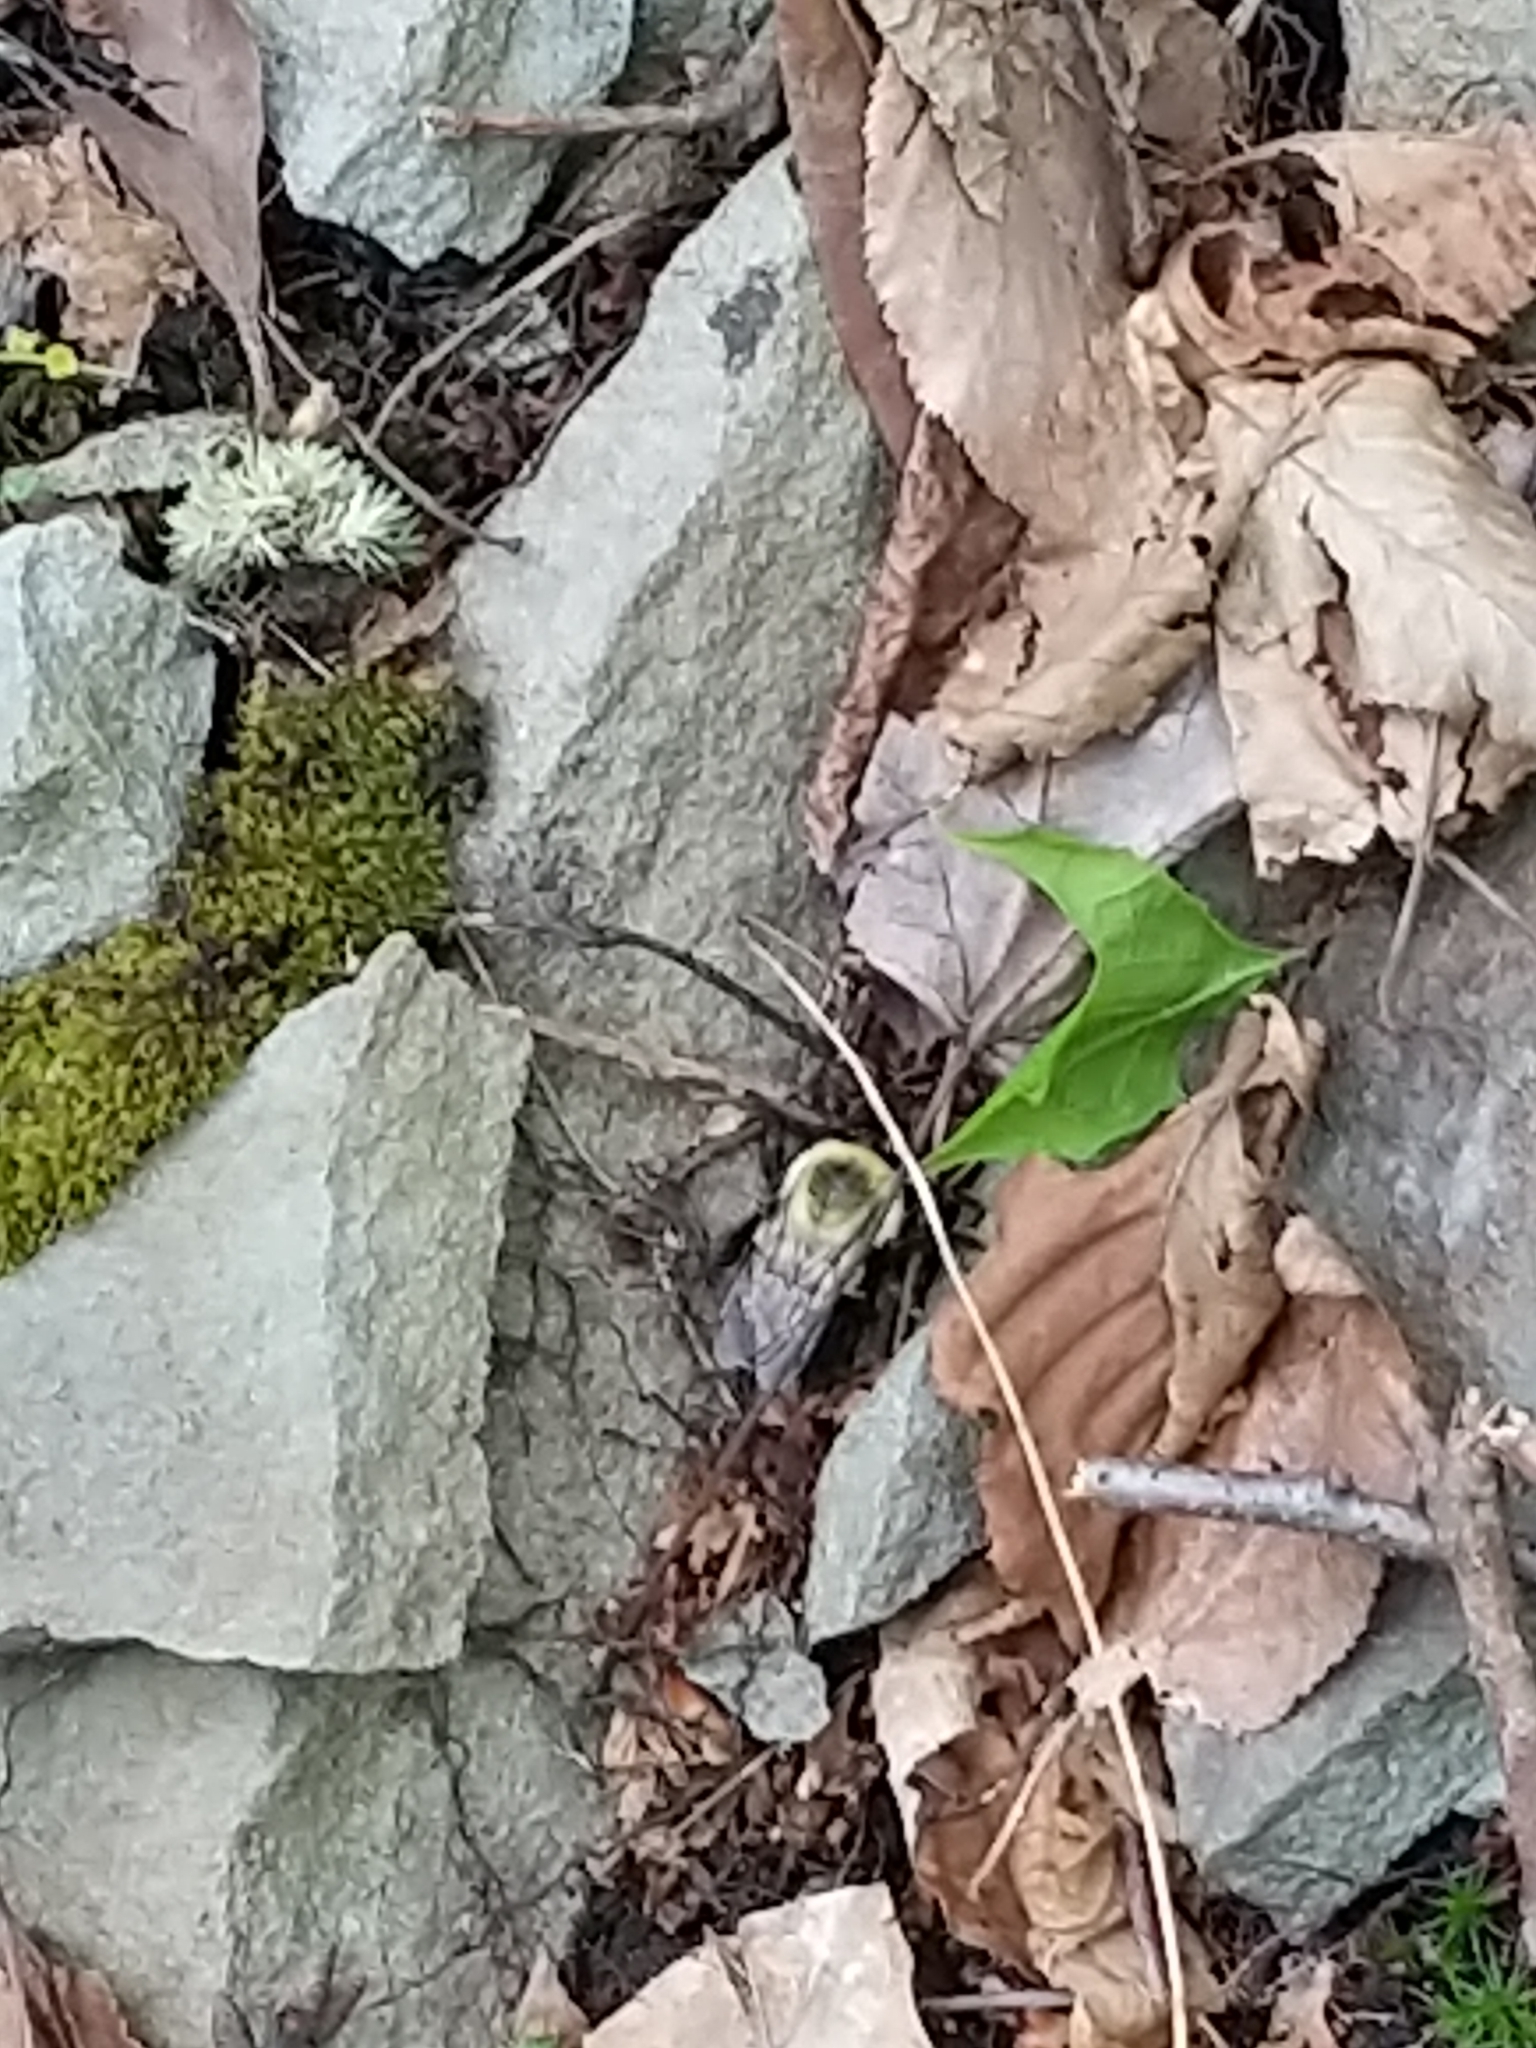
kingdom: Animalia
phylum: Arthropoda
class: Insecta
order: Hymenoptera
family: Apidae
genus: Bombus
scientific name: Bombus impatiens
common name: Common eastern bumble bee
